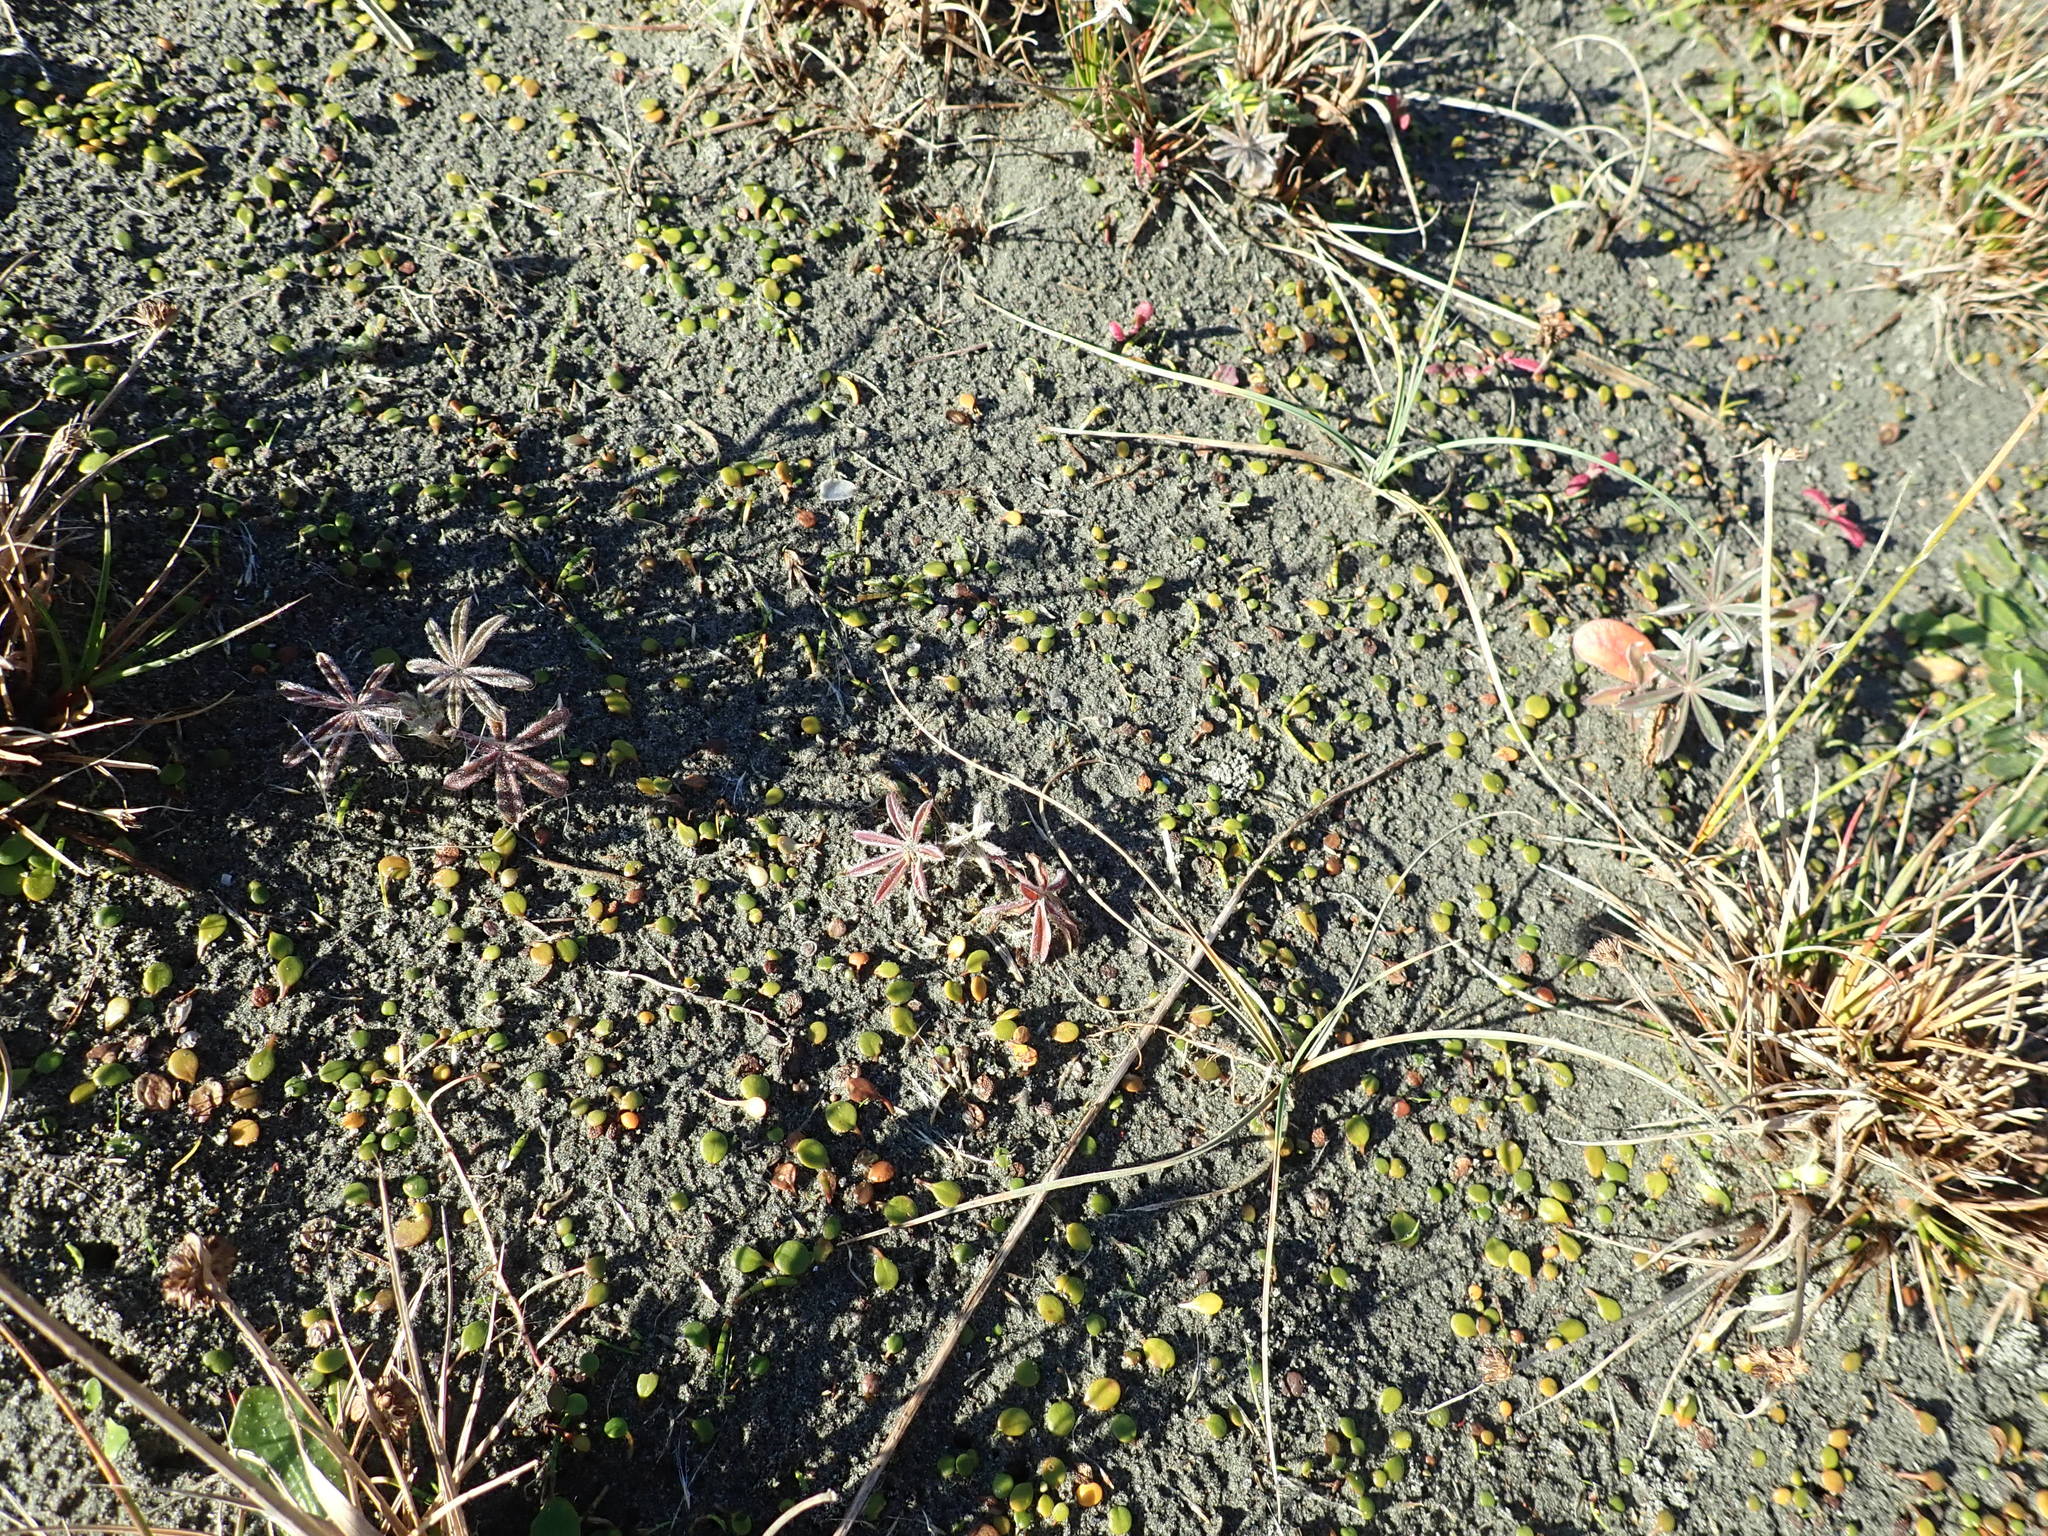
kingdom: Plantae
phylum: Tracheophyta
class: Magnoliopsida
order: Fabales
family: Fabaceae
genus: Lupinus
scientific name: Lupinus arboreus
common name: Yellow bush lupine
